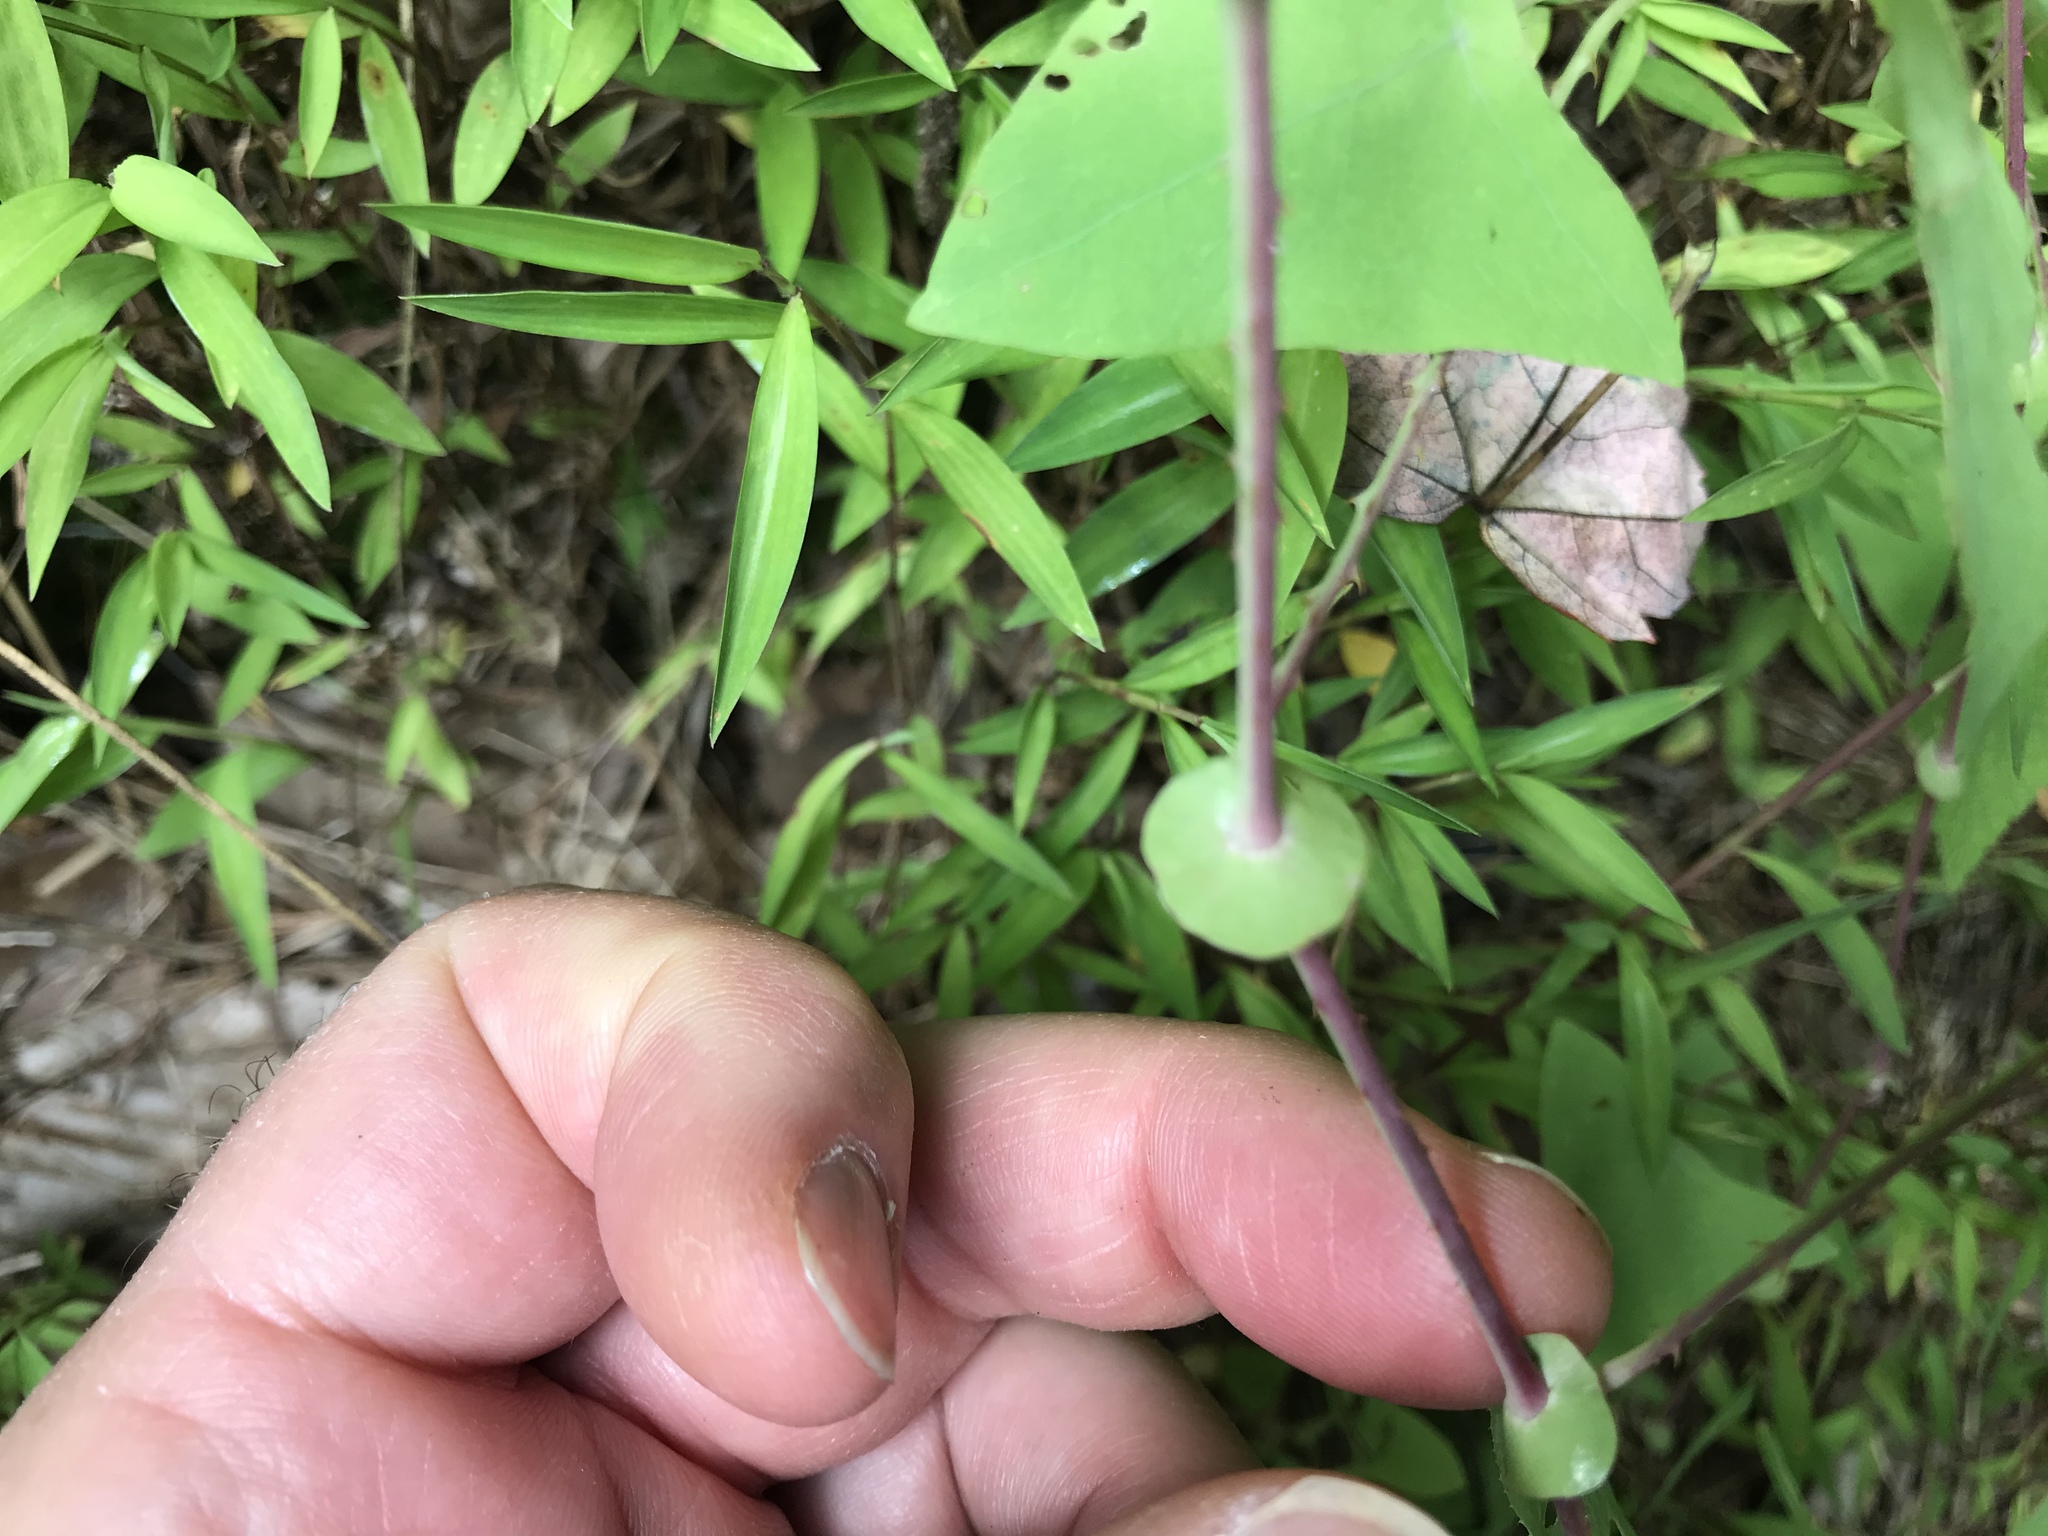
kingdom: Plantae
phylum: Tracheophyta
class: Magnoliopsida
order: Caryophyllales
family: Polygonaceae
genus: Persicaria
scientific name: Persicaria perfoliata
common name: Asiatic tearthumb
